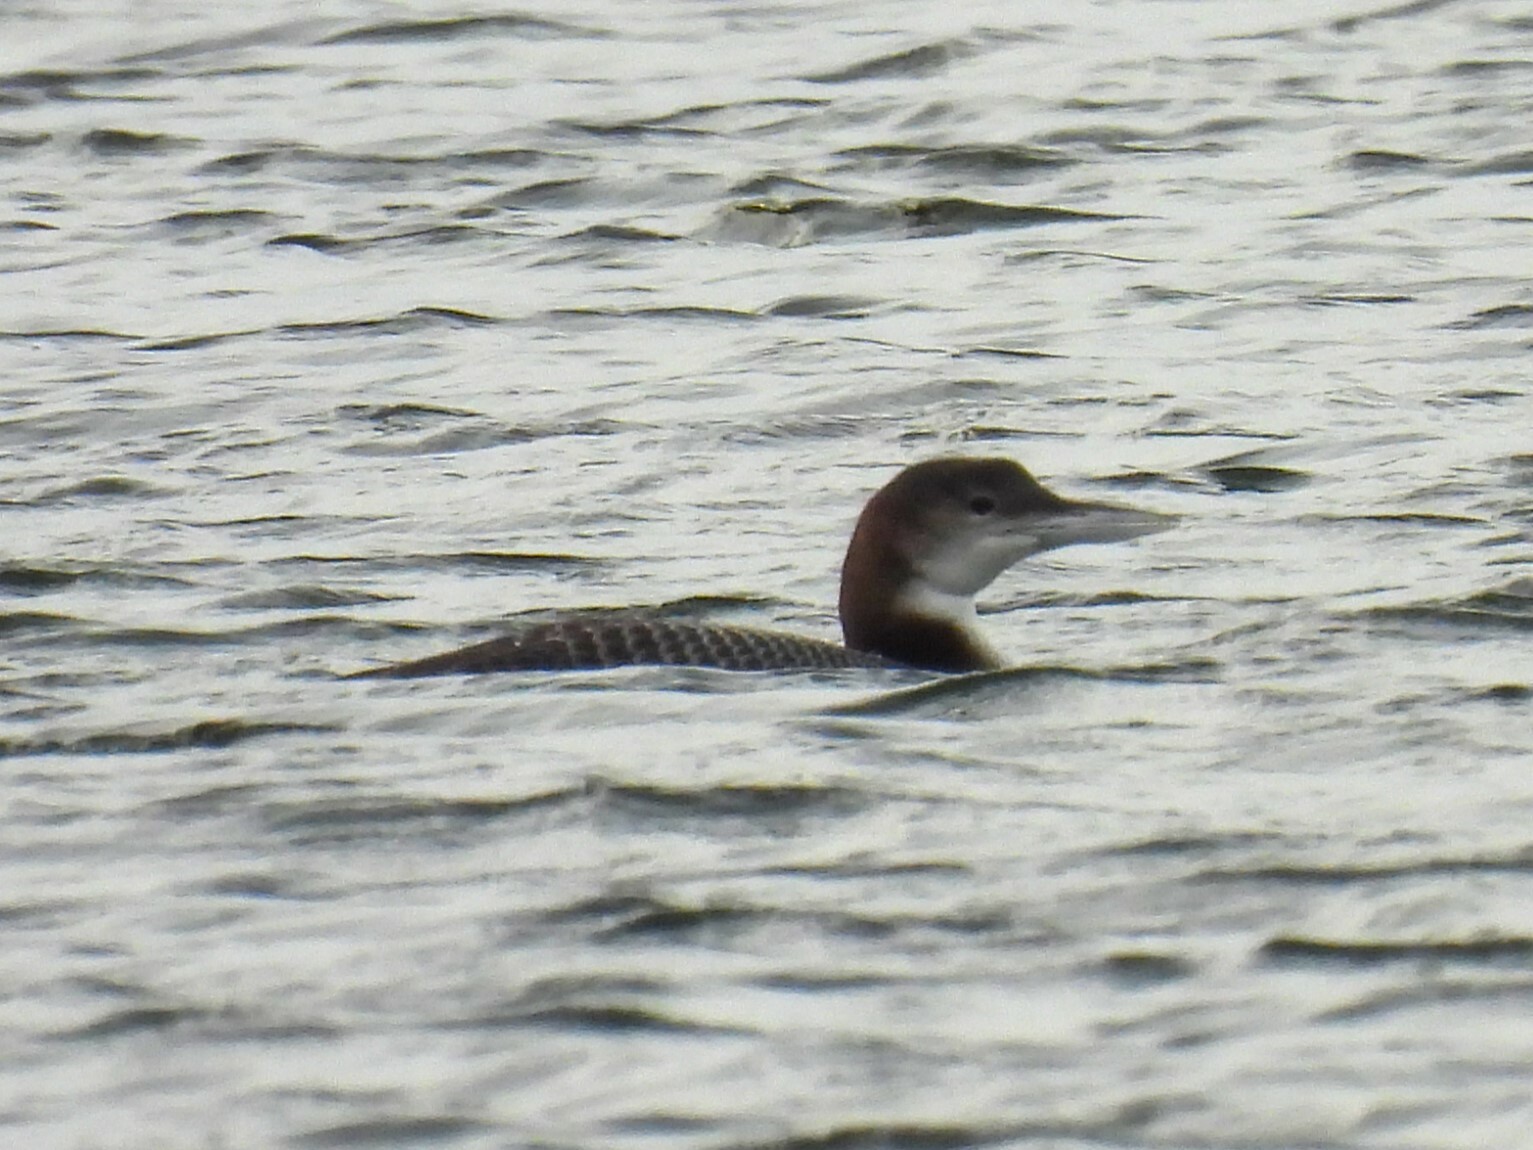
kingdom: Animalia
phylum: Chordata
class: Aves
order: Gaviiformes
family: Gaviidae
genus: Gavia
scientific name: Gavia immer
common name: Common loon
